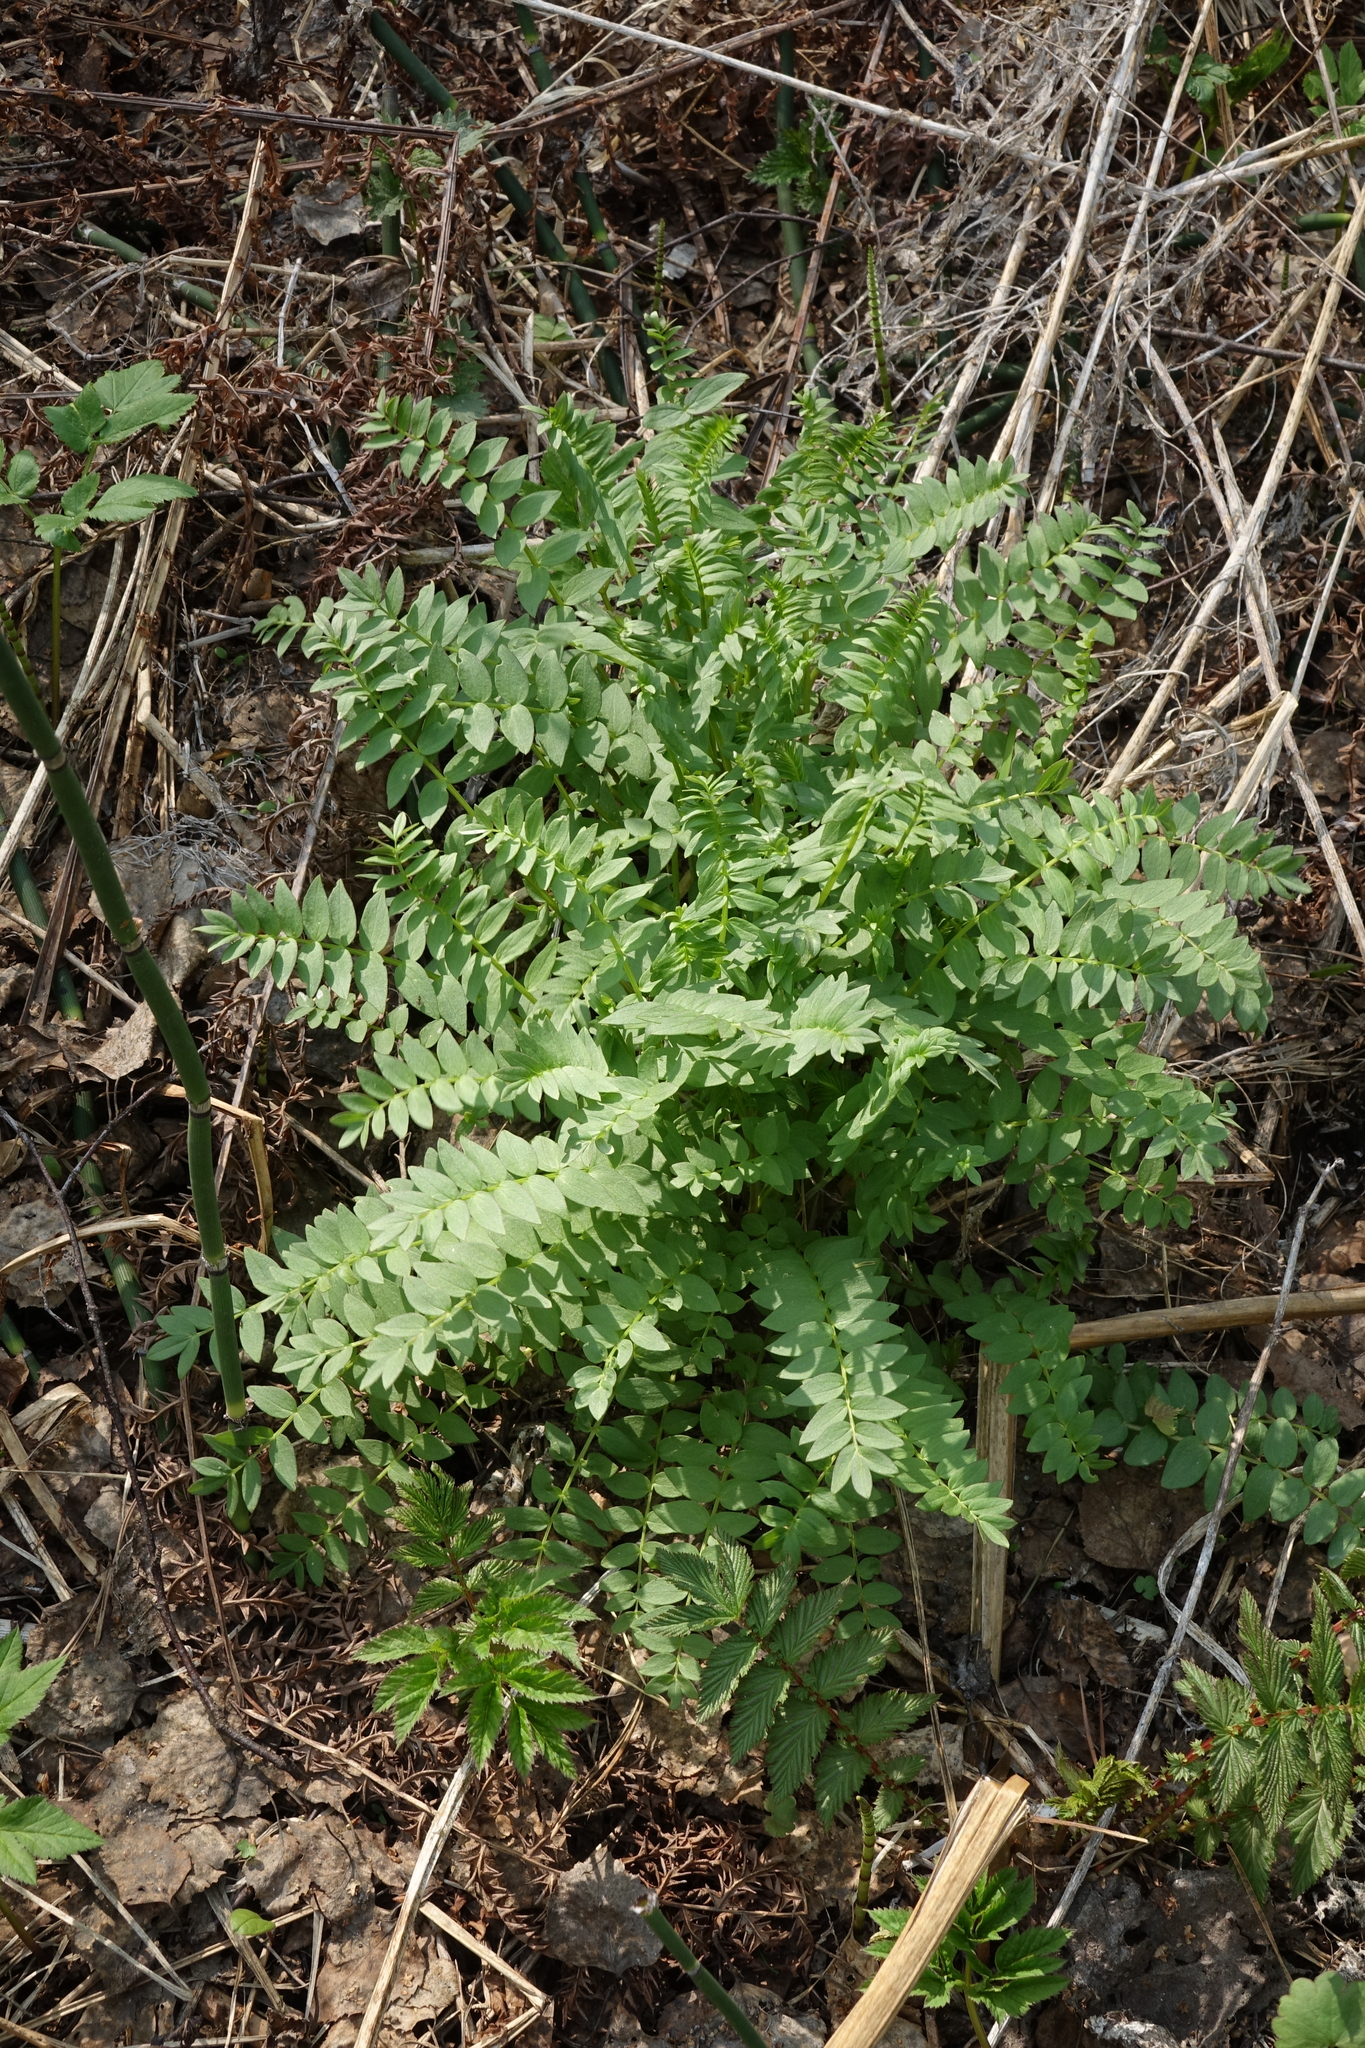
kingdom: Plantae
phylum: Tracheophyta
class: Magnoliopsida
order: Ericales
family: Polemoniaceae
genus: Polemonium
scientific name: Polemonium caeruleum
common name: Jacob's-ladder
